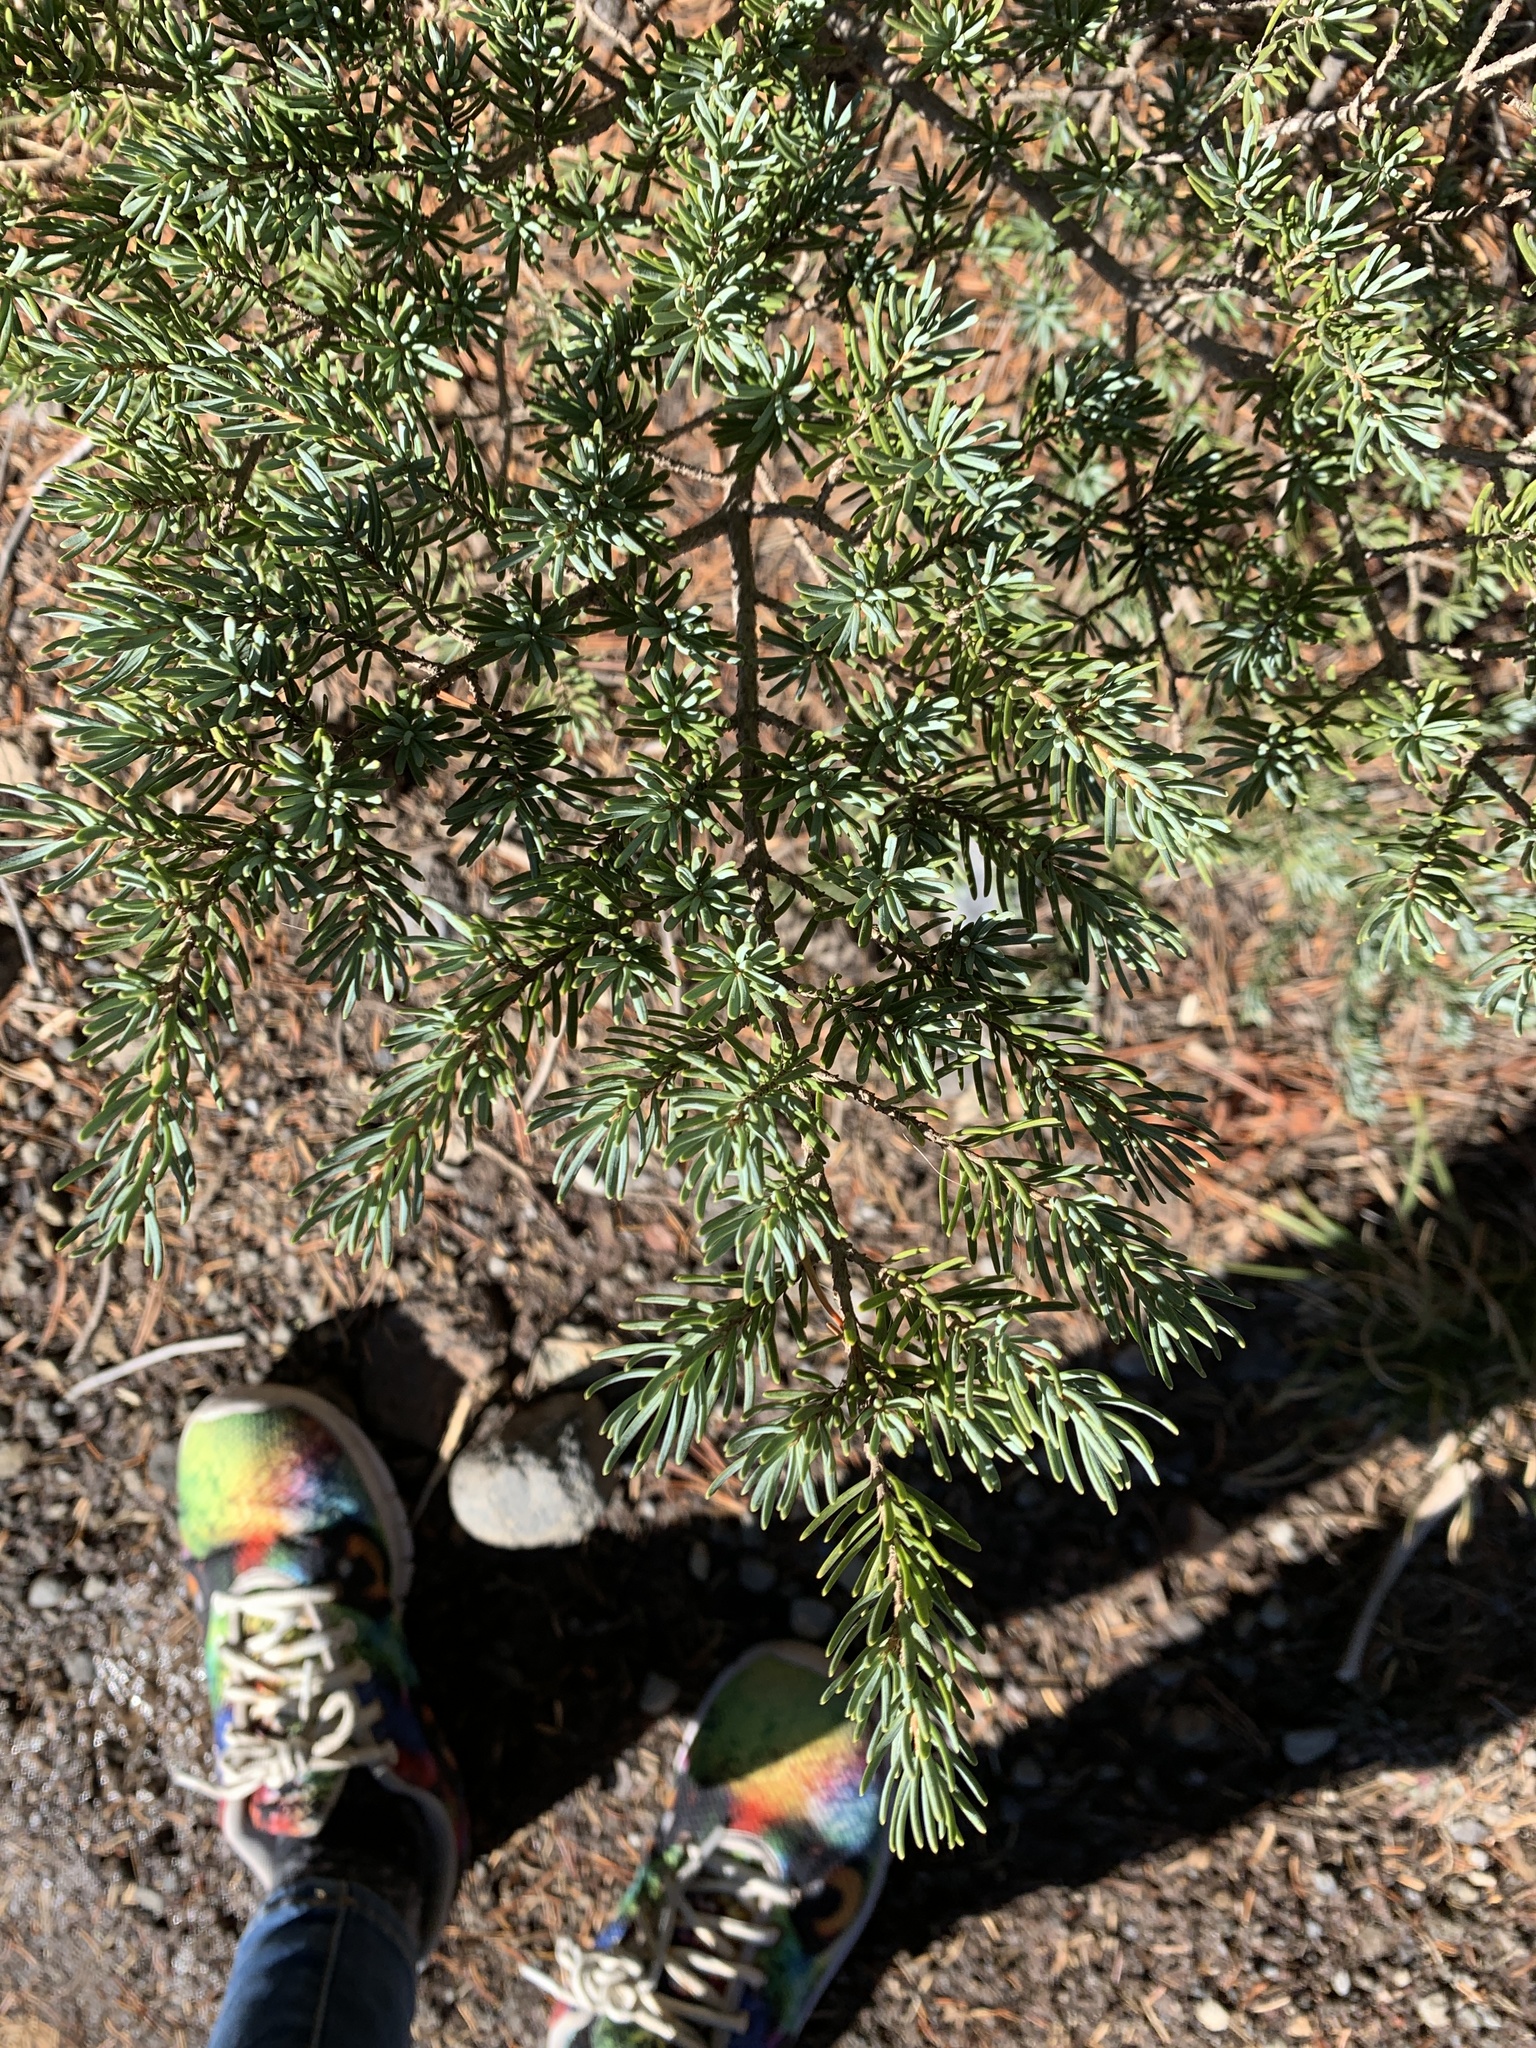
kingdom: Plantae
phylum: Tracheophyta
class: Pinopsida
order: Pinales
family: Pinaceae
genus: Tsuga
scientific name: Tsuga mertensiana
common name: Mountain hemlock
